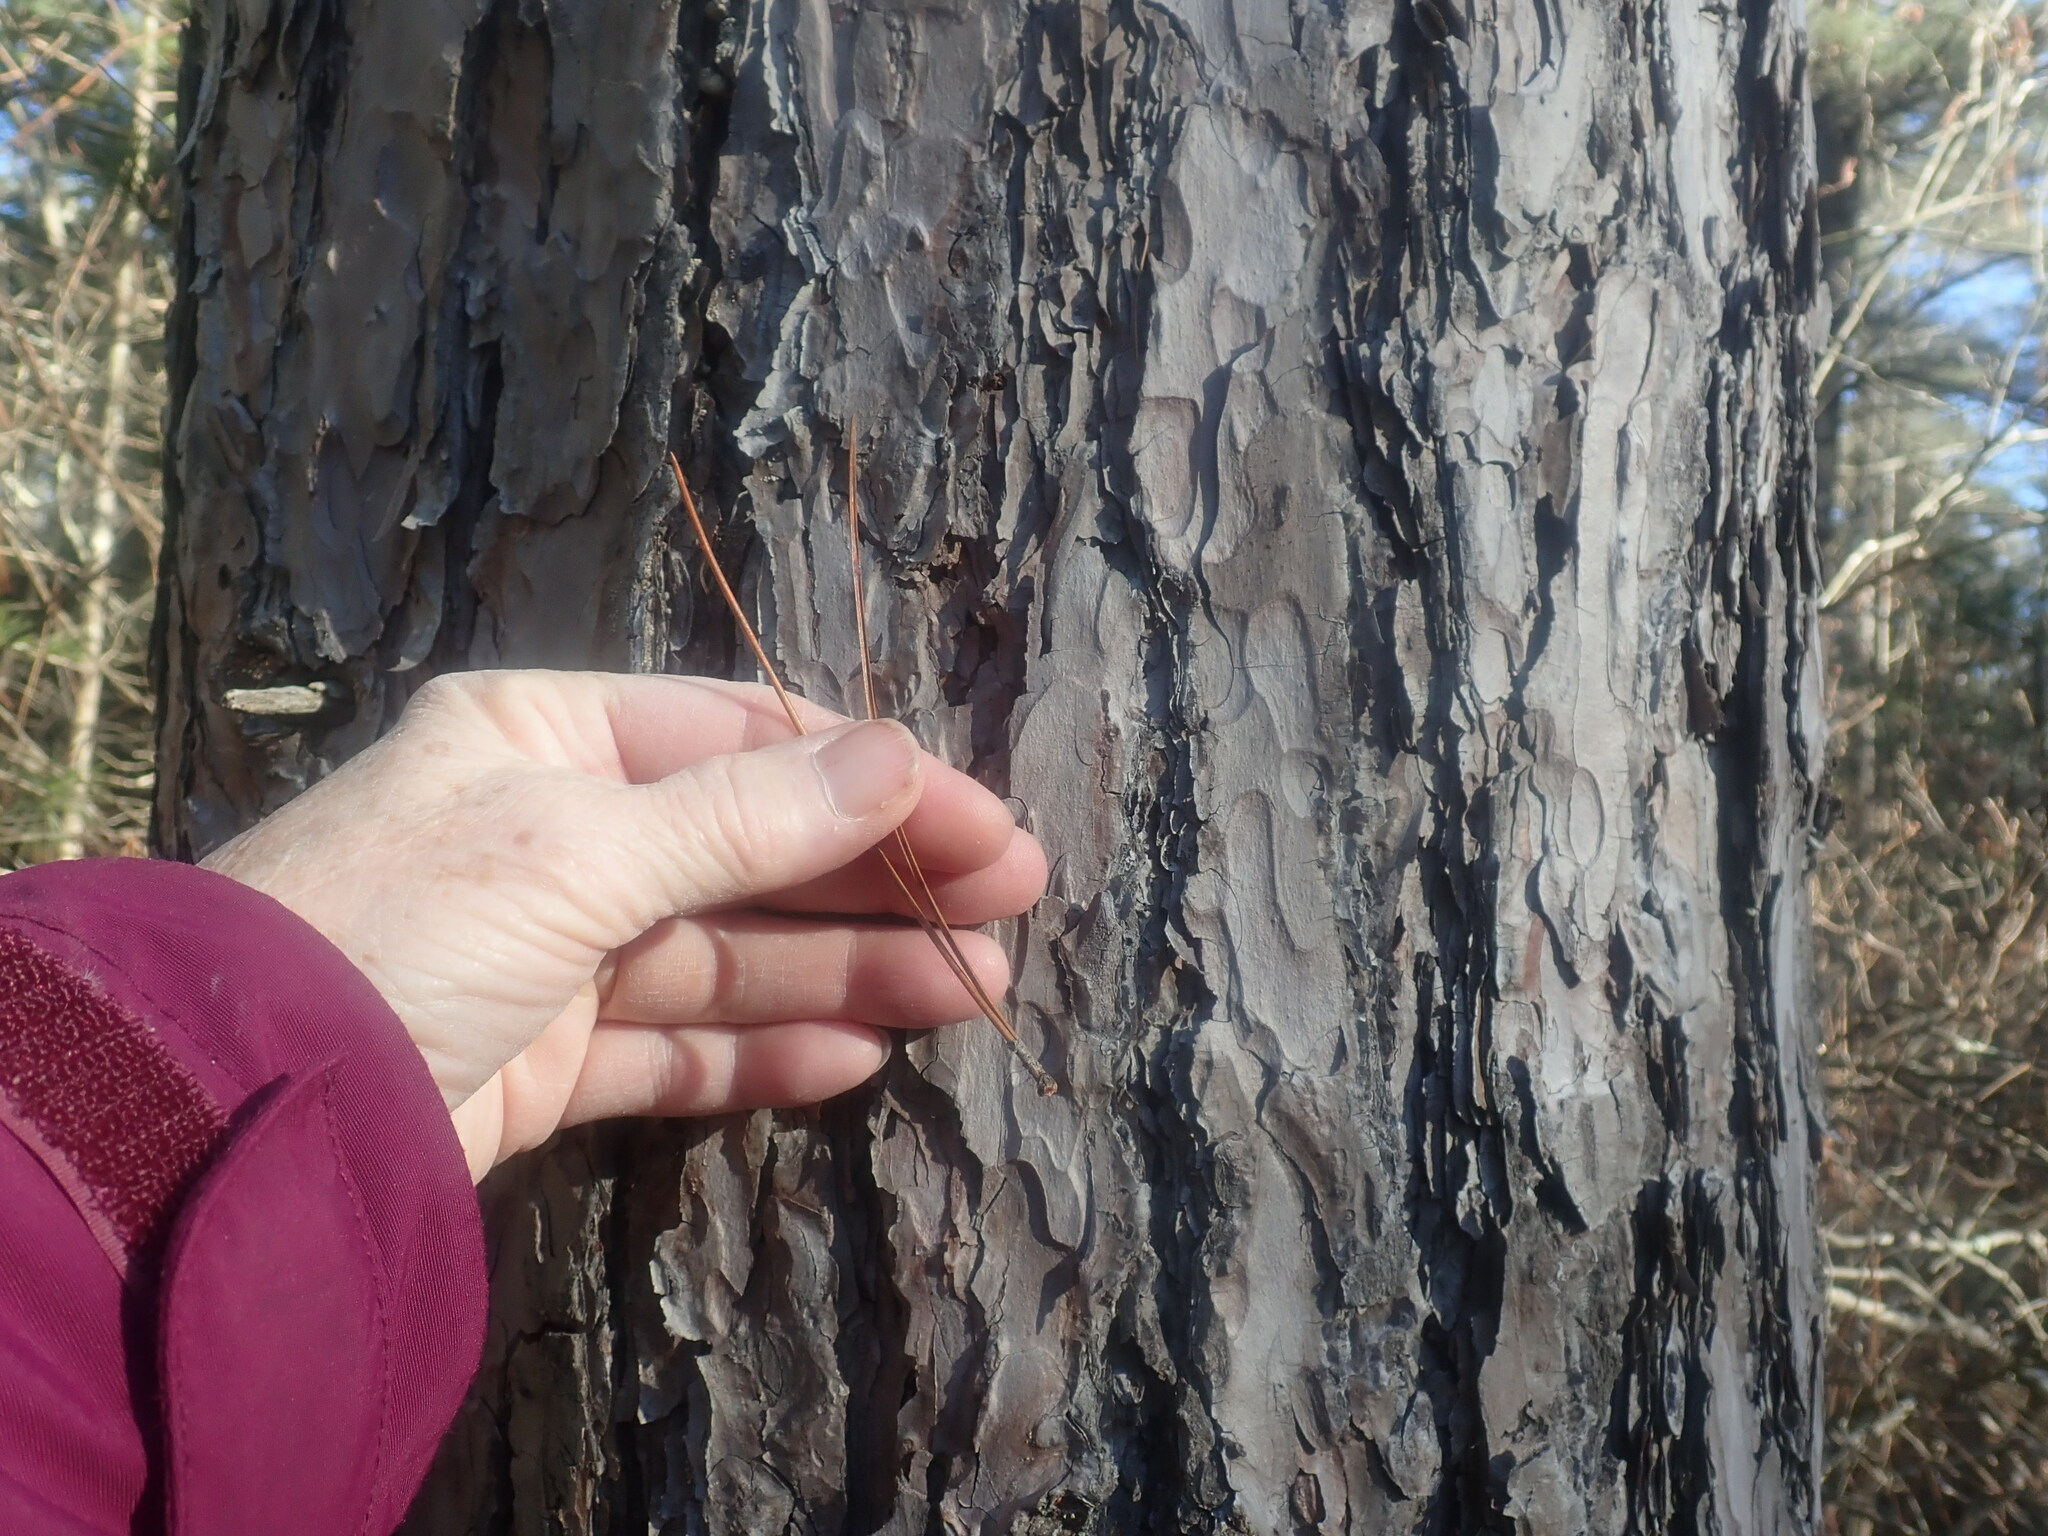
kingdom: Plantae
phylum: Tracheophyta
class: Pinopsida
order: Pinales
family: Pinaceae
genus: Pinus
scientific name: Pinus resinosa
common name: Norway pine
